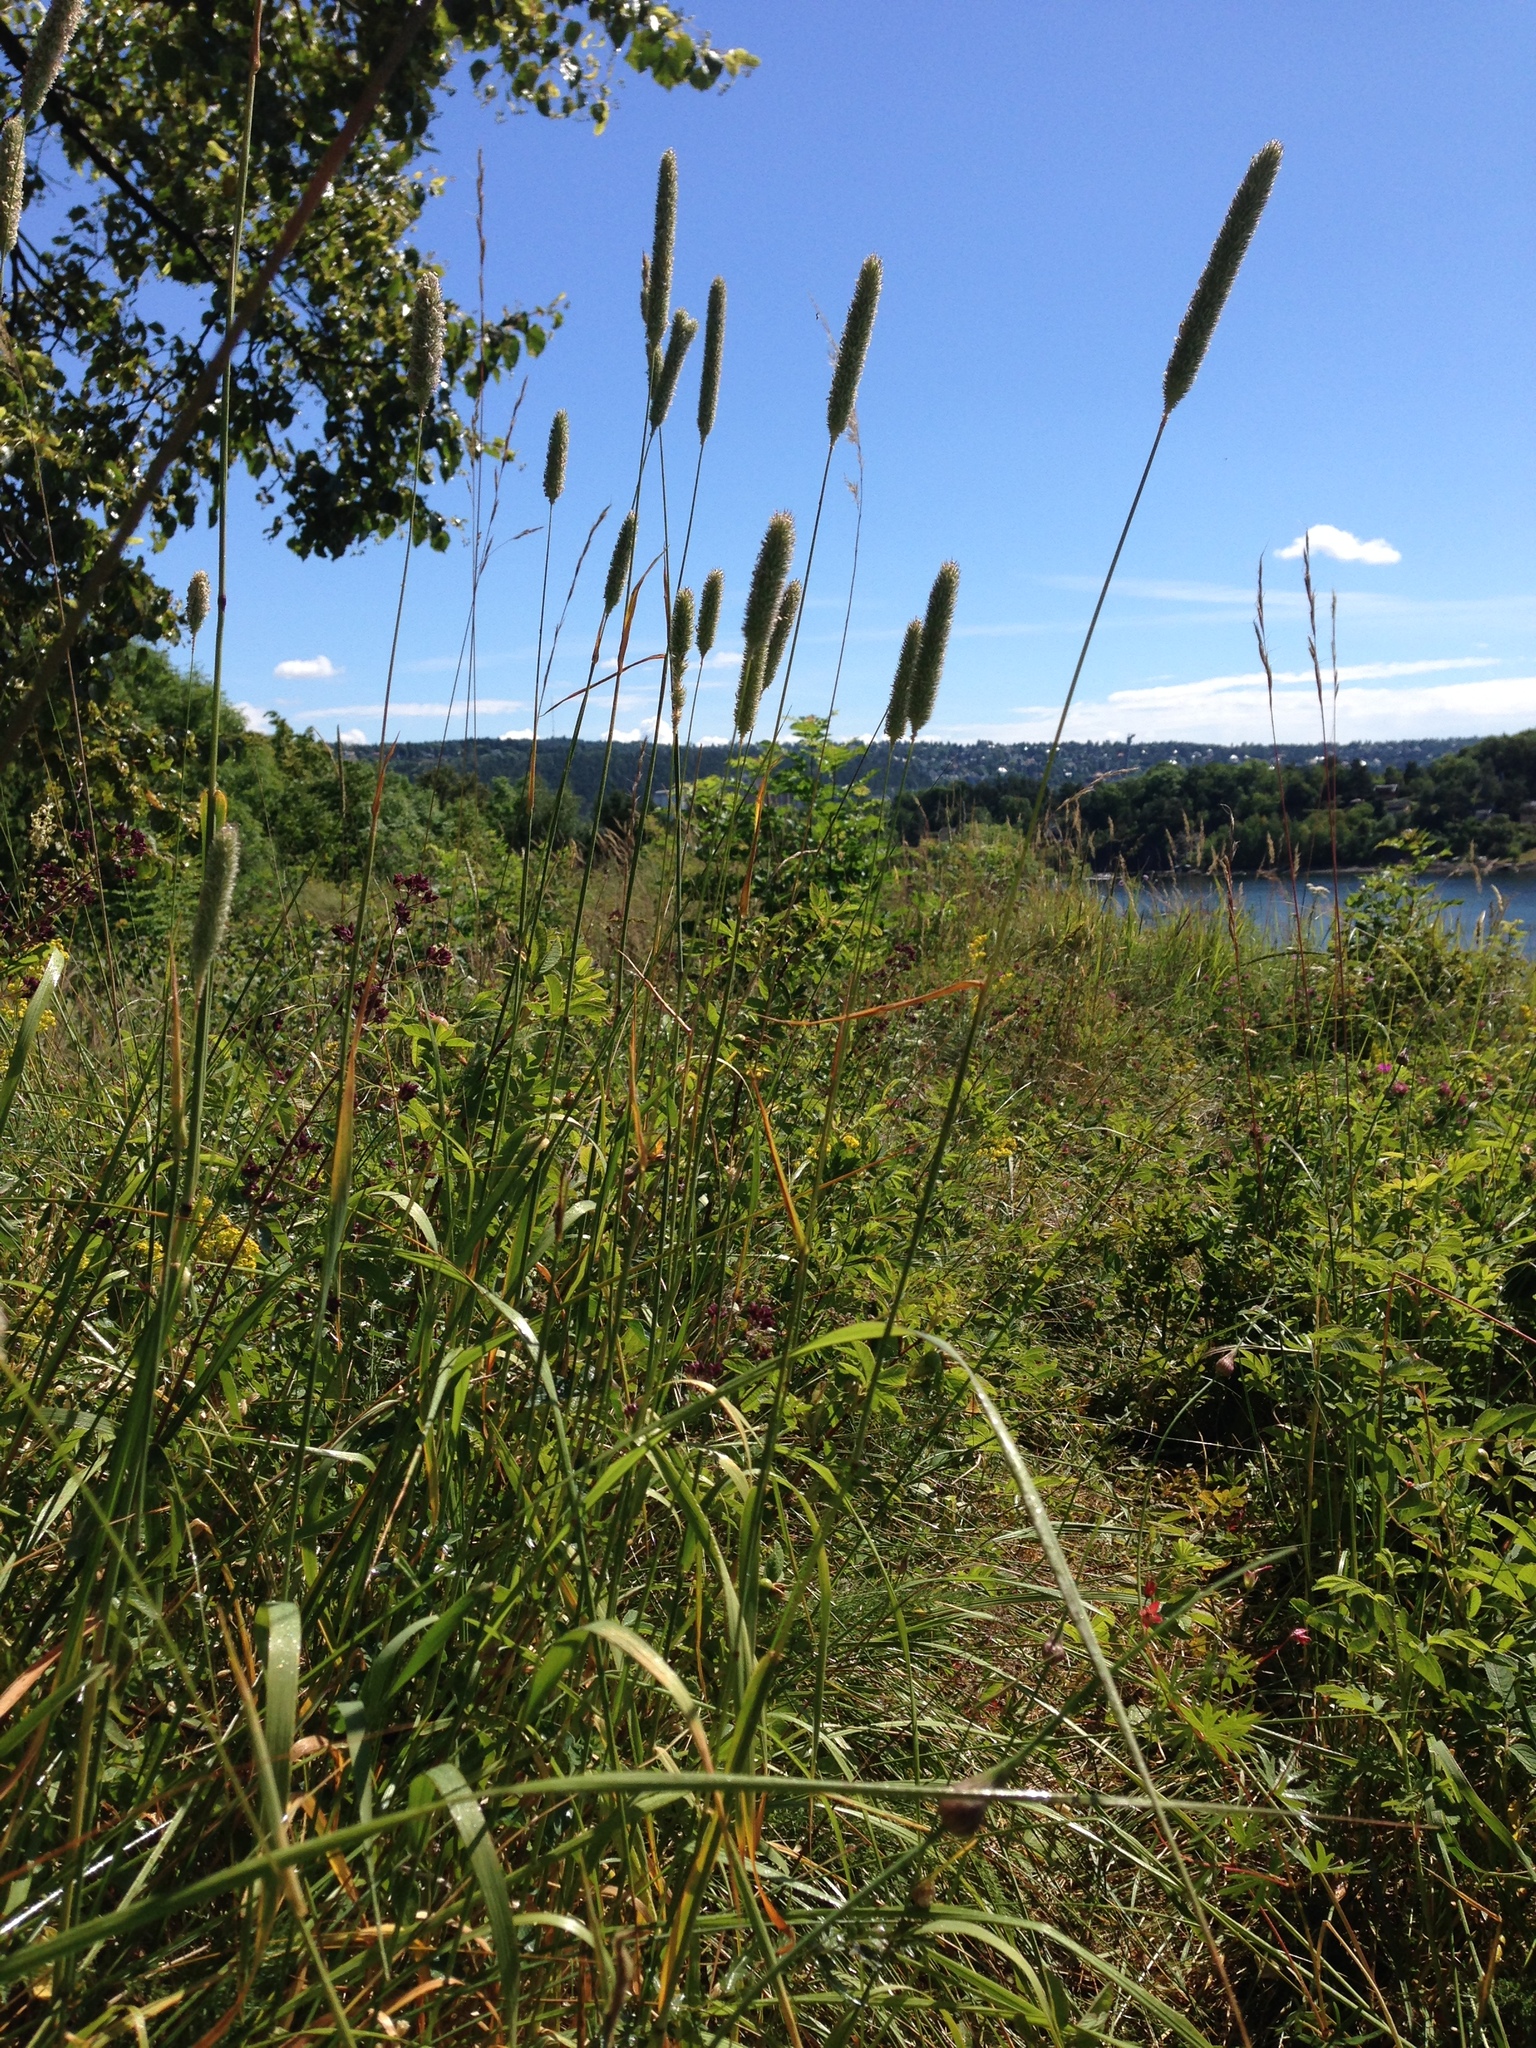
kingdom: Plantae
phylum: Tracheophyta
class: Liliopsida
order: Poales
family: Poaceae
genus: Phleum
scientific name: Phleum pratense
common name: Timothy grass
